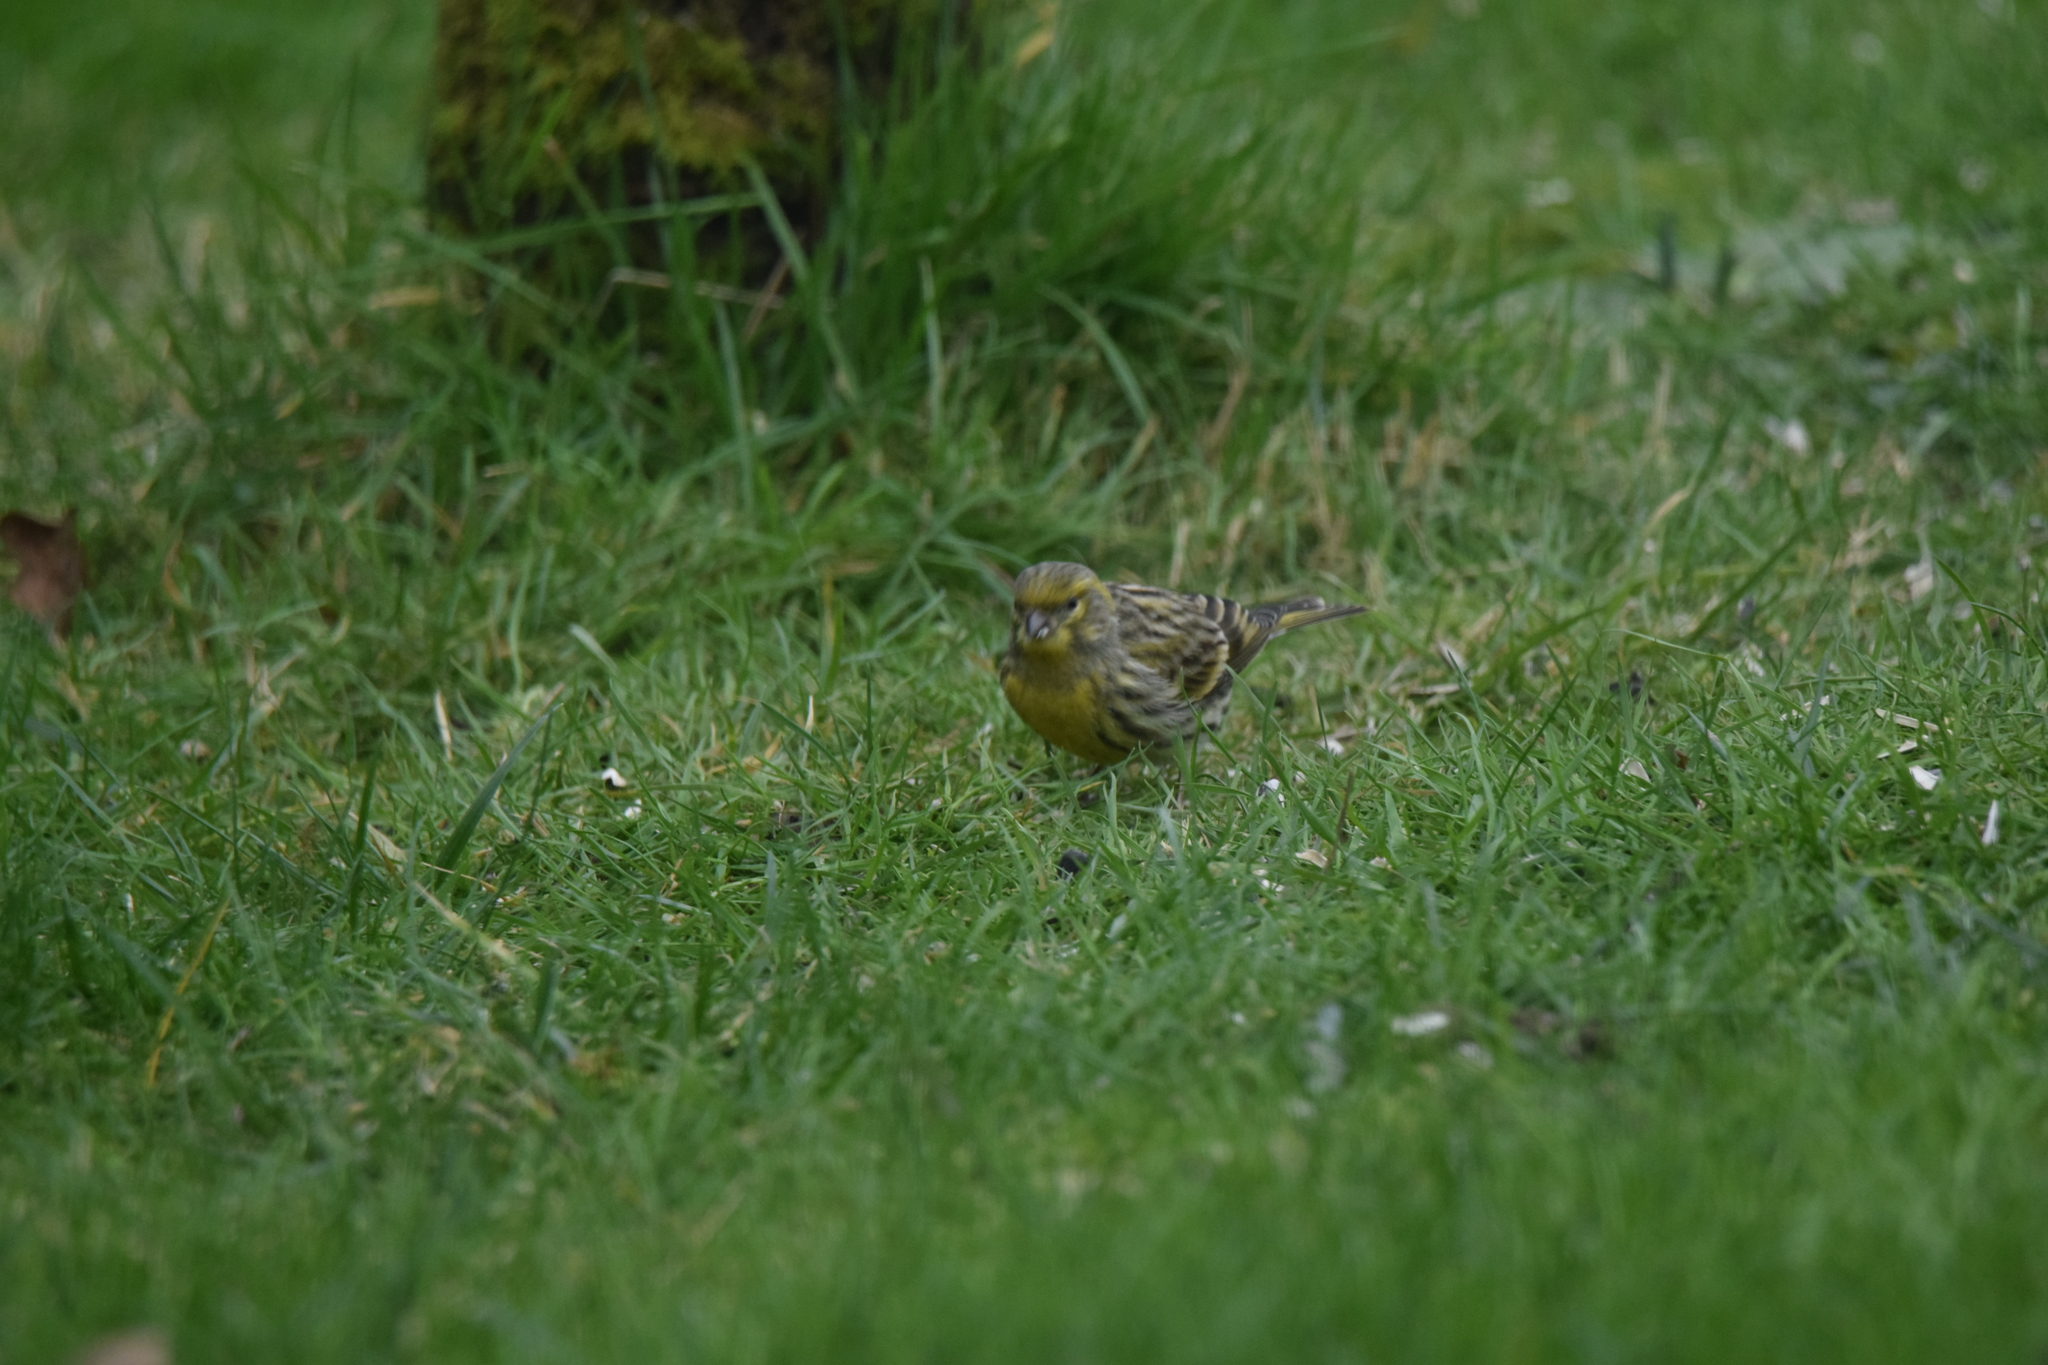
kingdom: Animalia
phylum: Chordata
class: Aves
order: Passeriformes
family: Fringillidae
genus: Serinus
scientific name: Serinus serinus
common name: European serin
